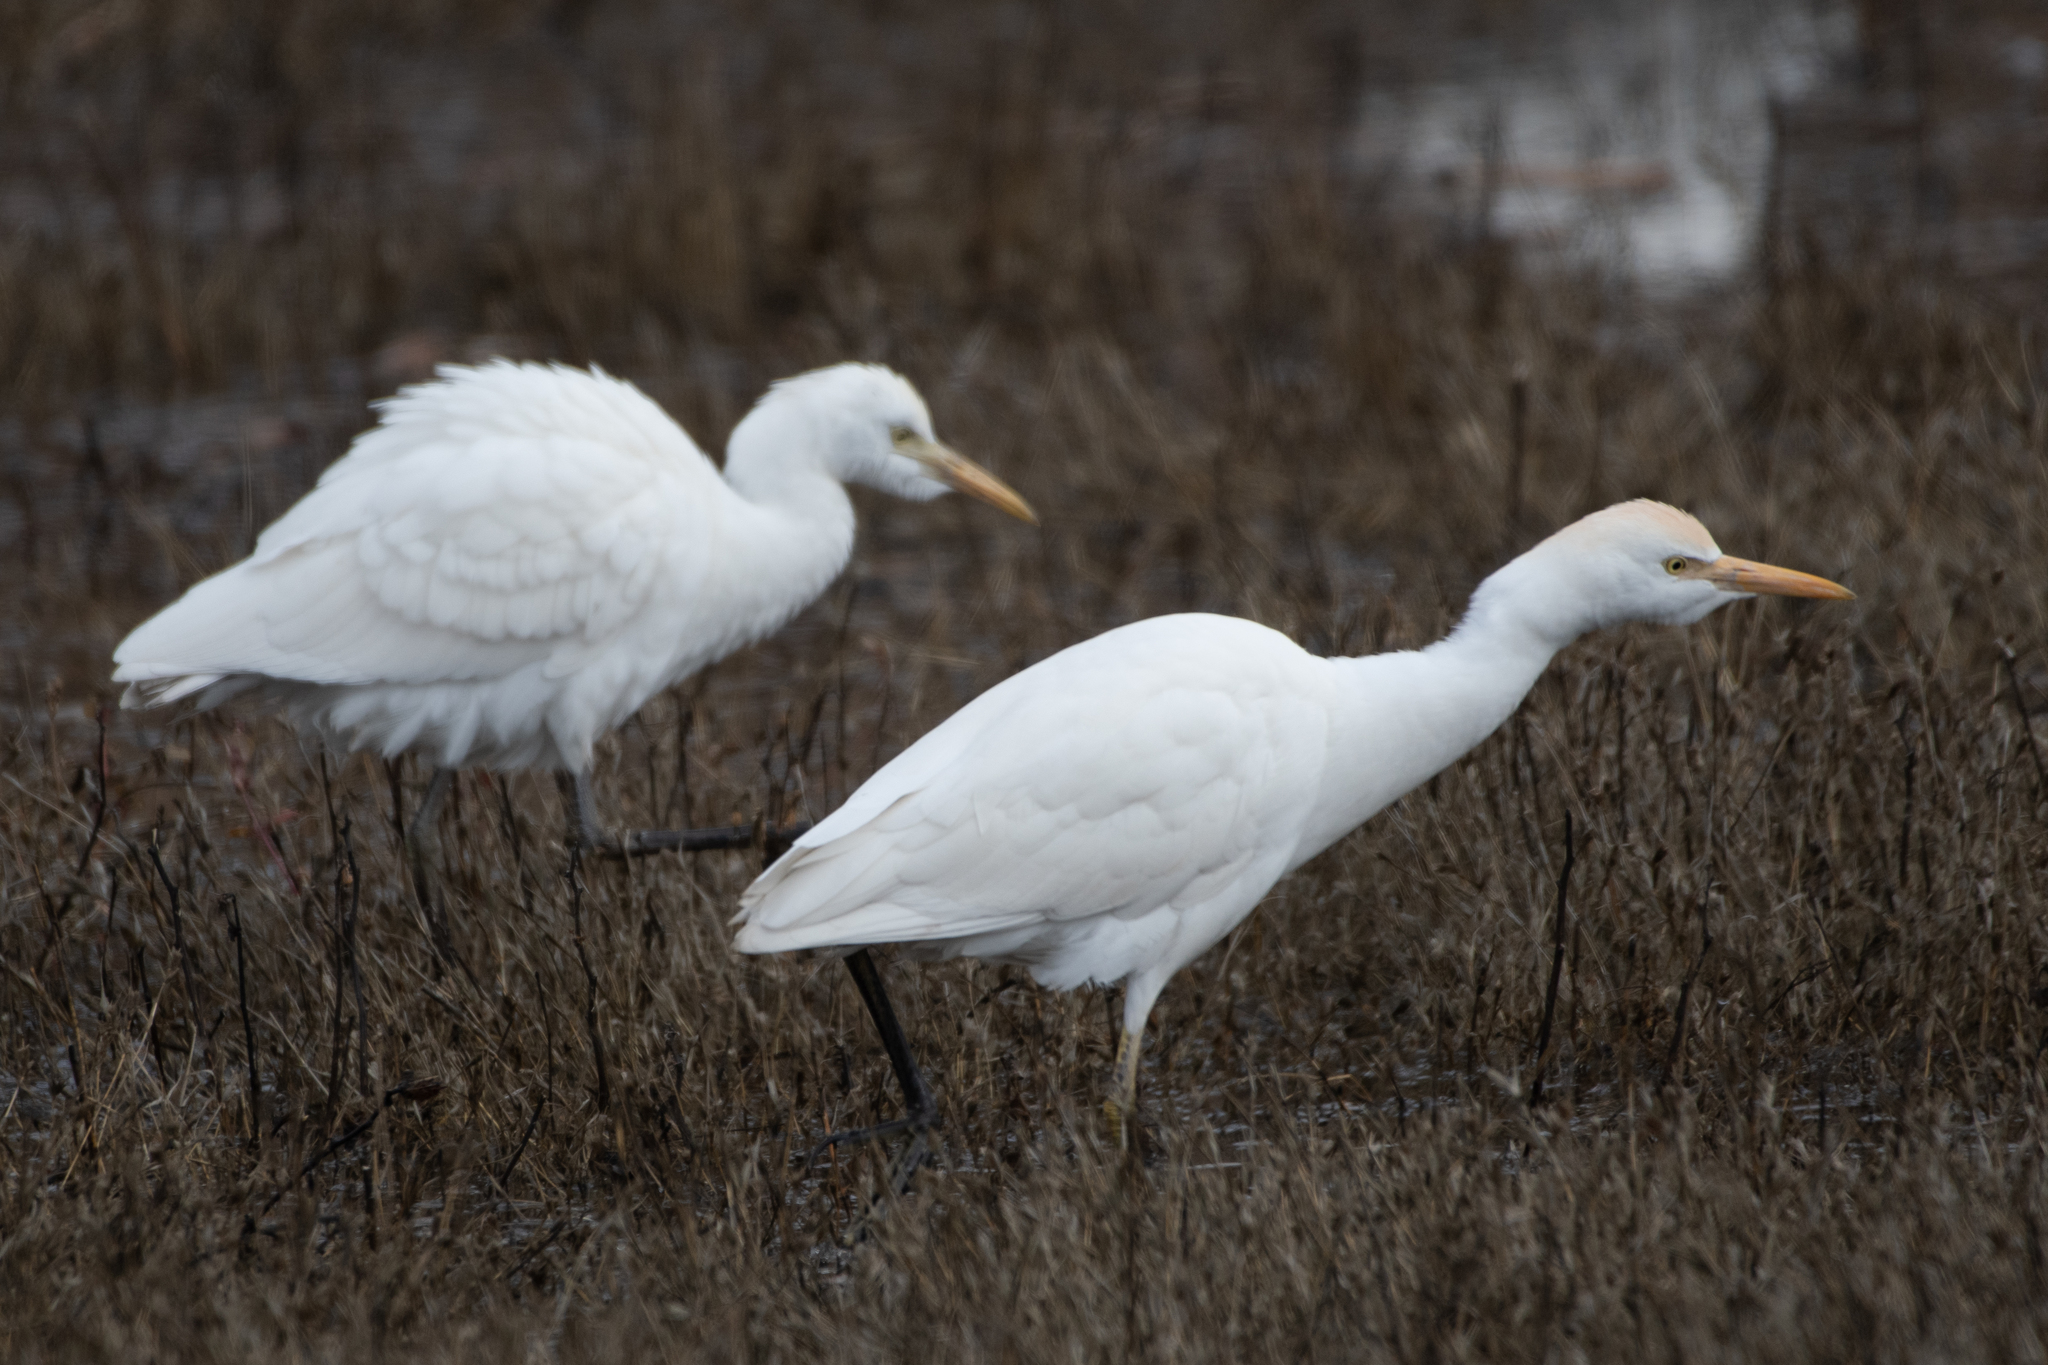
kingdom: Animalia
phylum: Chordata
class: Aves
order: Pelecaniformes
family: Ardeidae
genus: Bubulcus
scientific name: Bubulcus ibis
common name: Cattle egret
